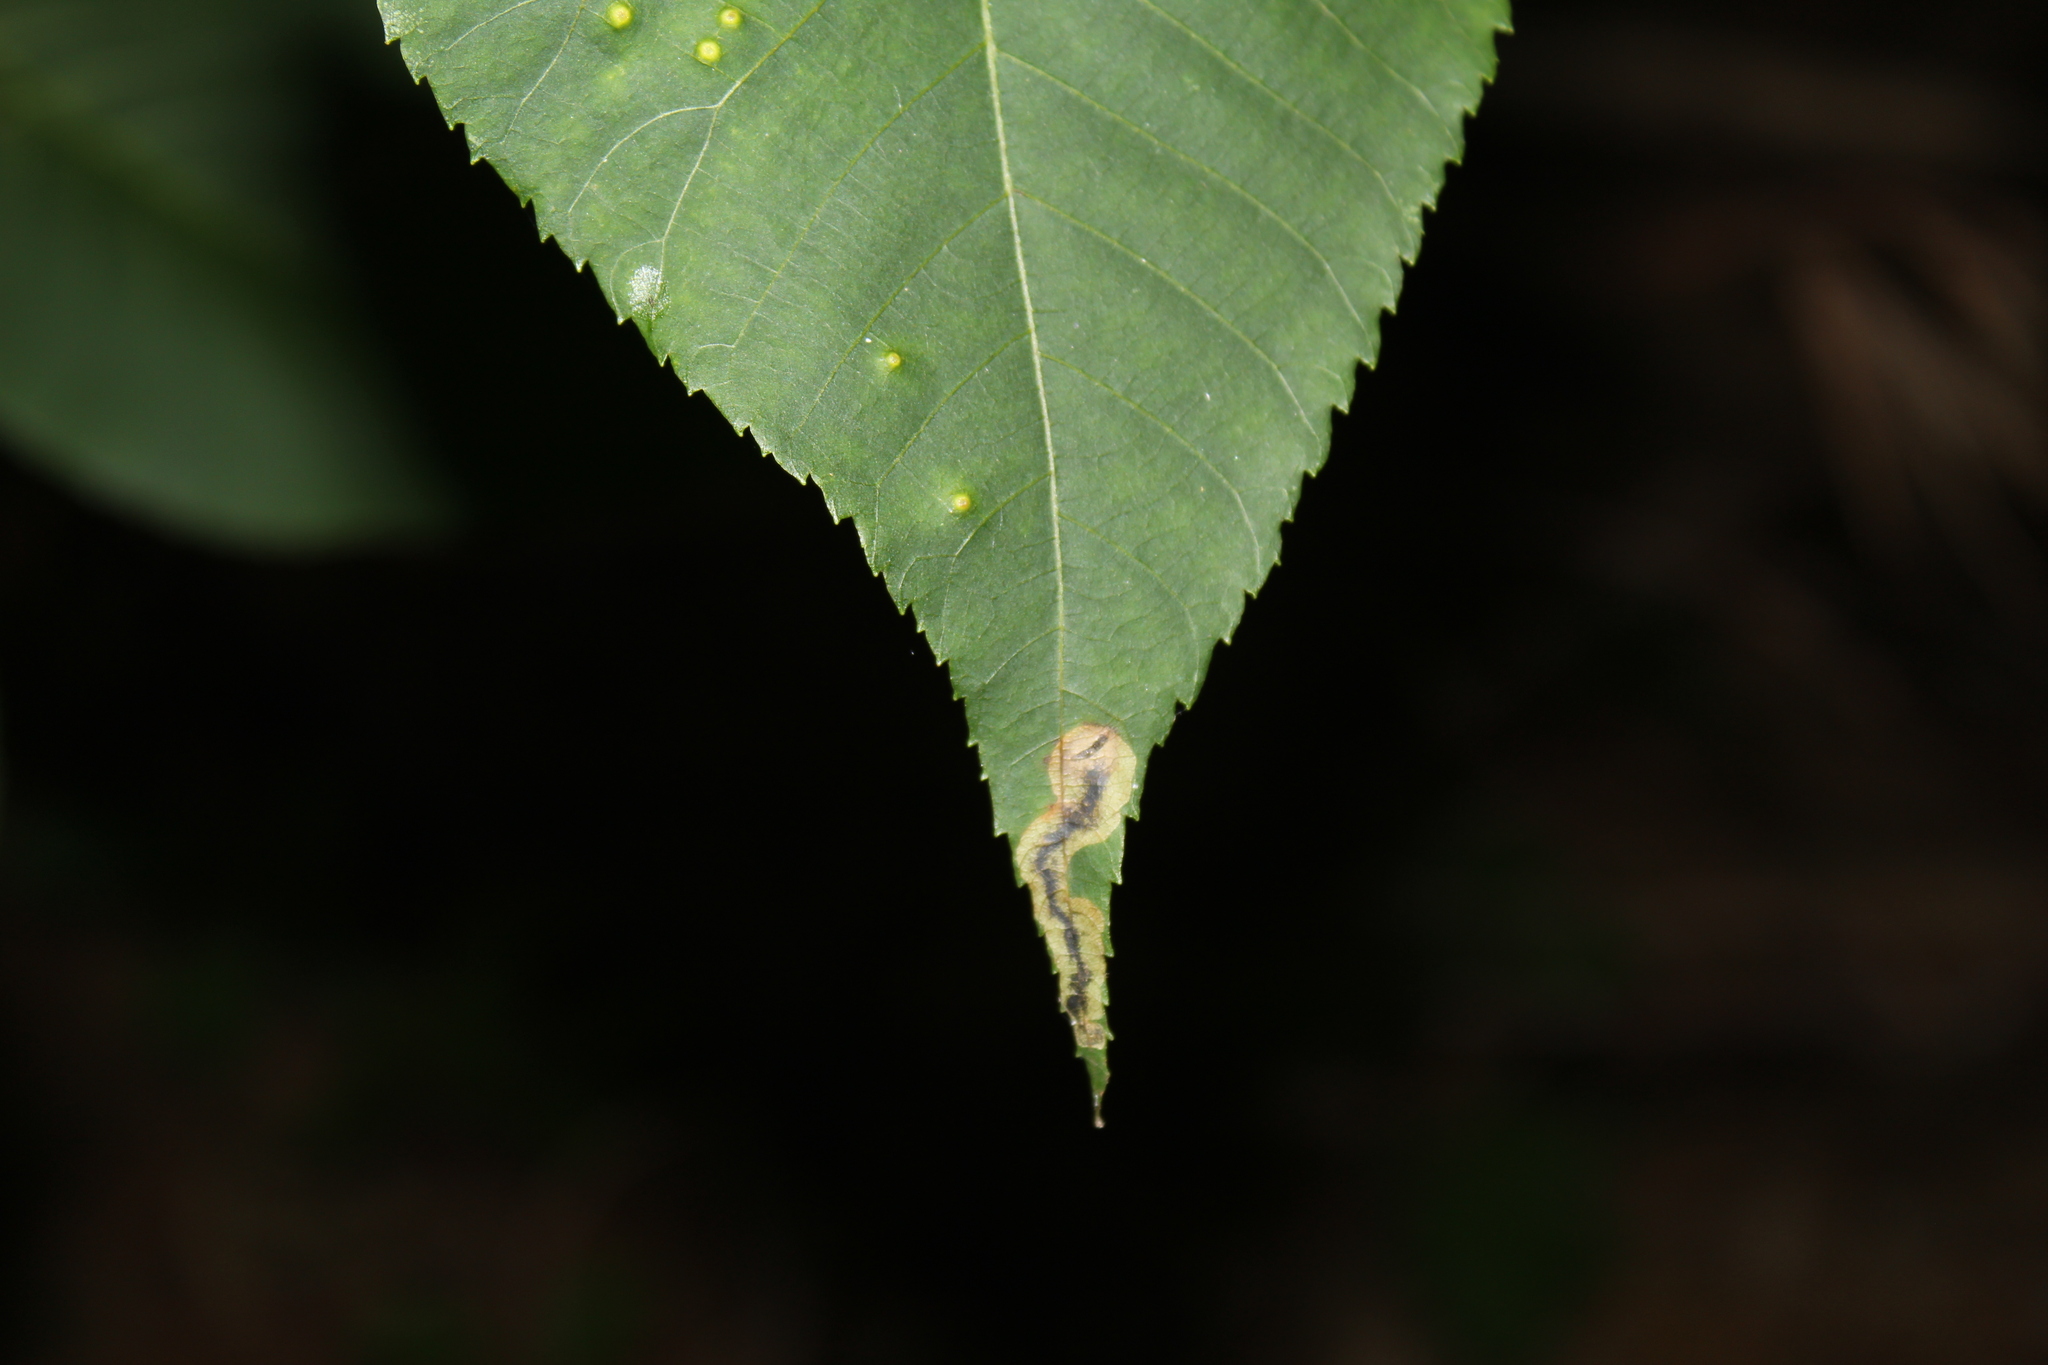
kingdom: Animalia
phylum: Arthropoda
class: Insecta
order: Lepidoptera
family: Gracillariidae
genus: Cameraria
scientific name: Cameraria caryaefoliella
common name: Pecan leafminer moth
